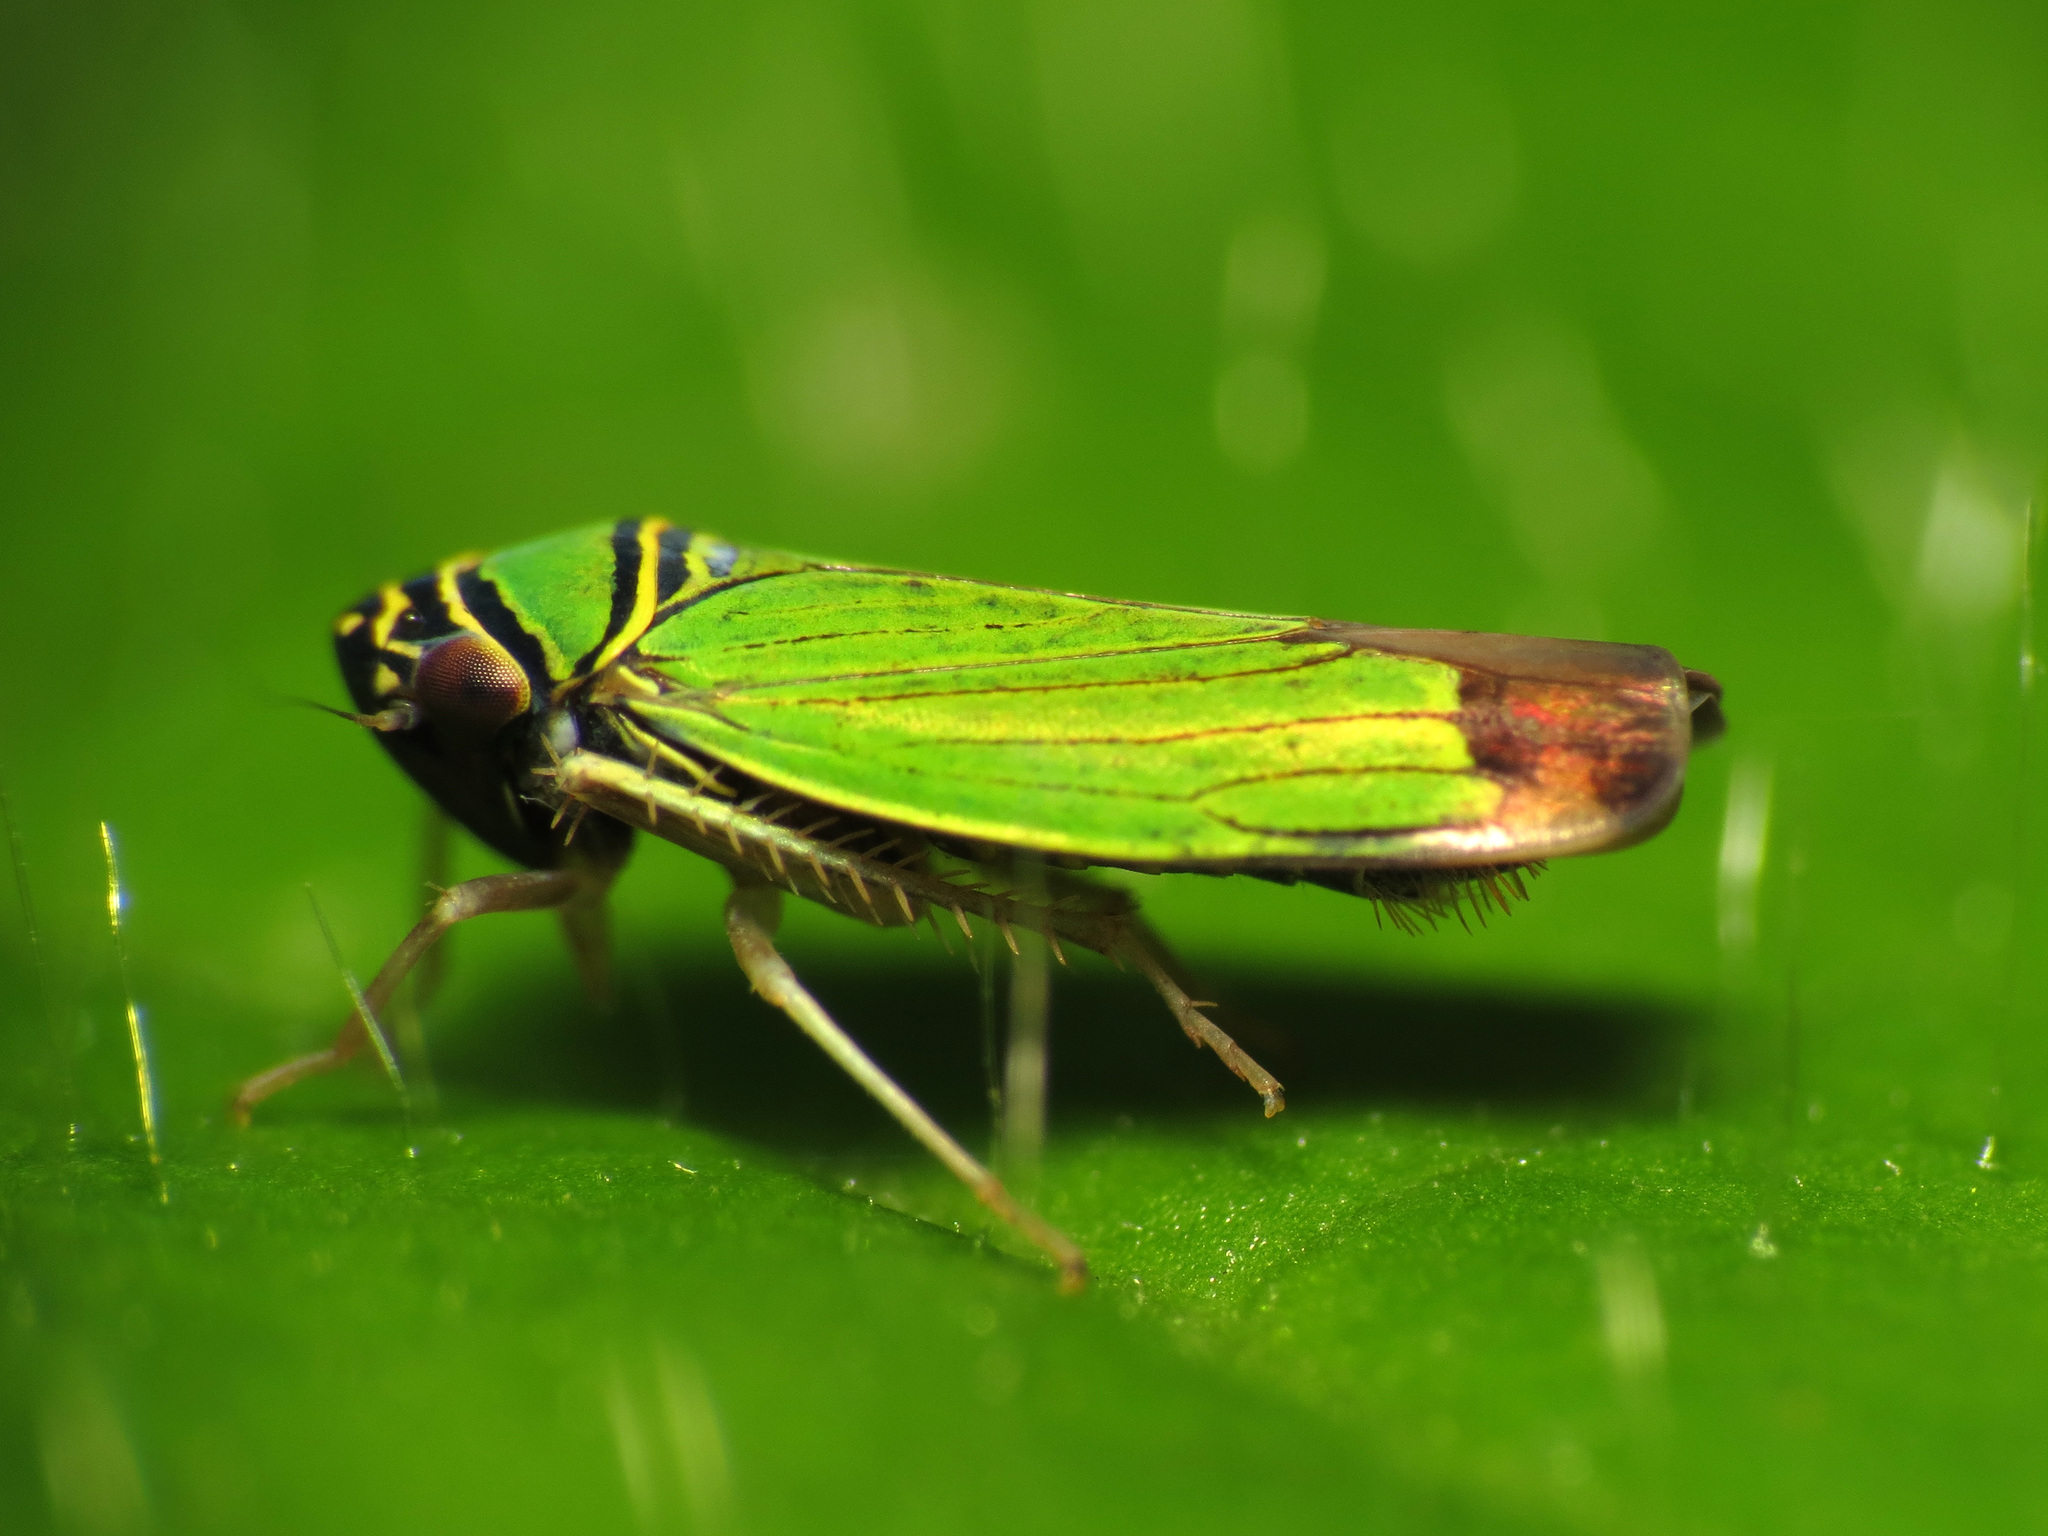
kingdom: Animalia
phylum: Arthropoda
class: Insecta
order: Hemiptera
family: Cicadellidae
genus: Tylozygus
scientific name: Tylozygus geometricus
